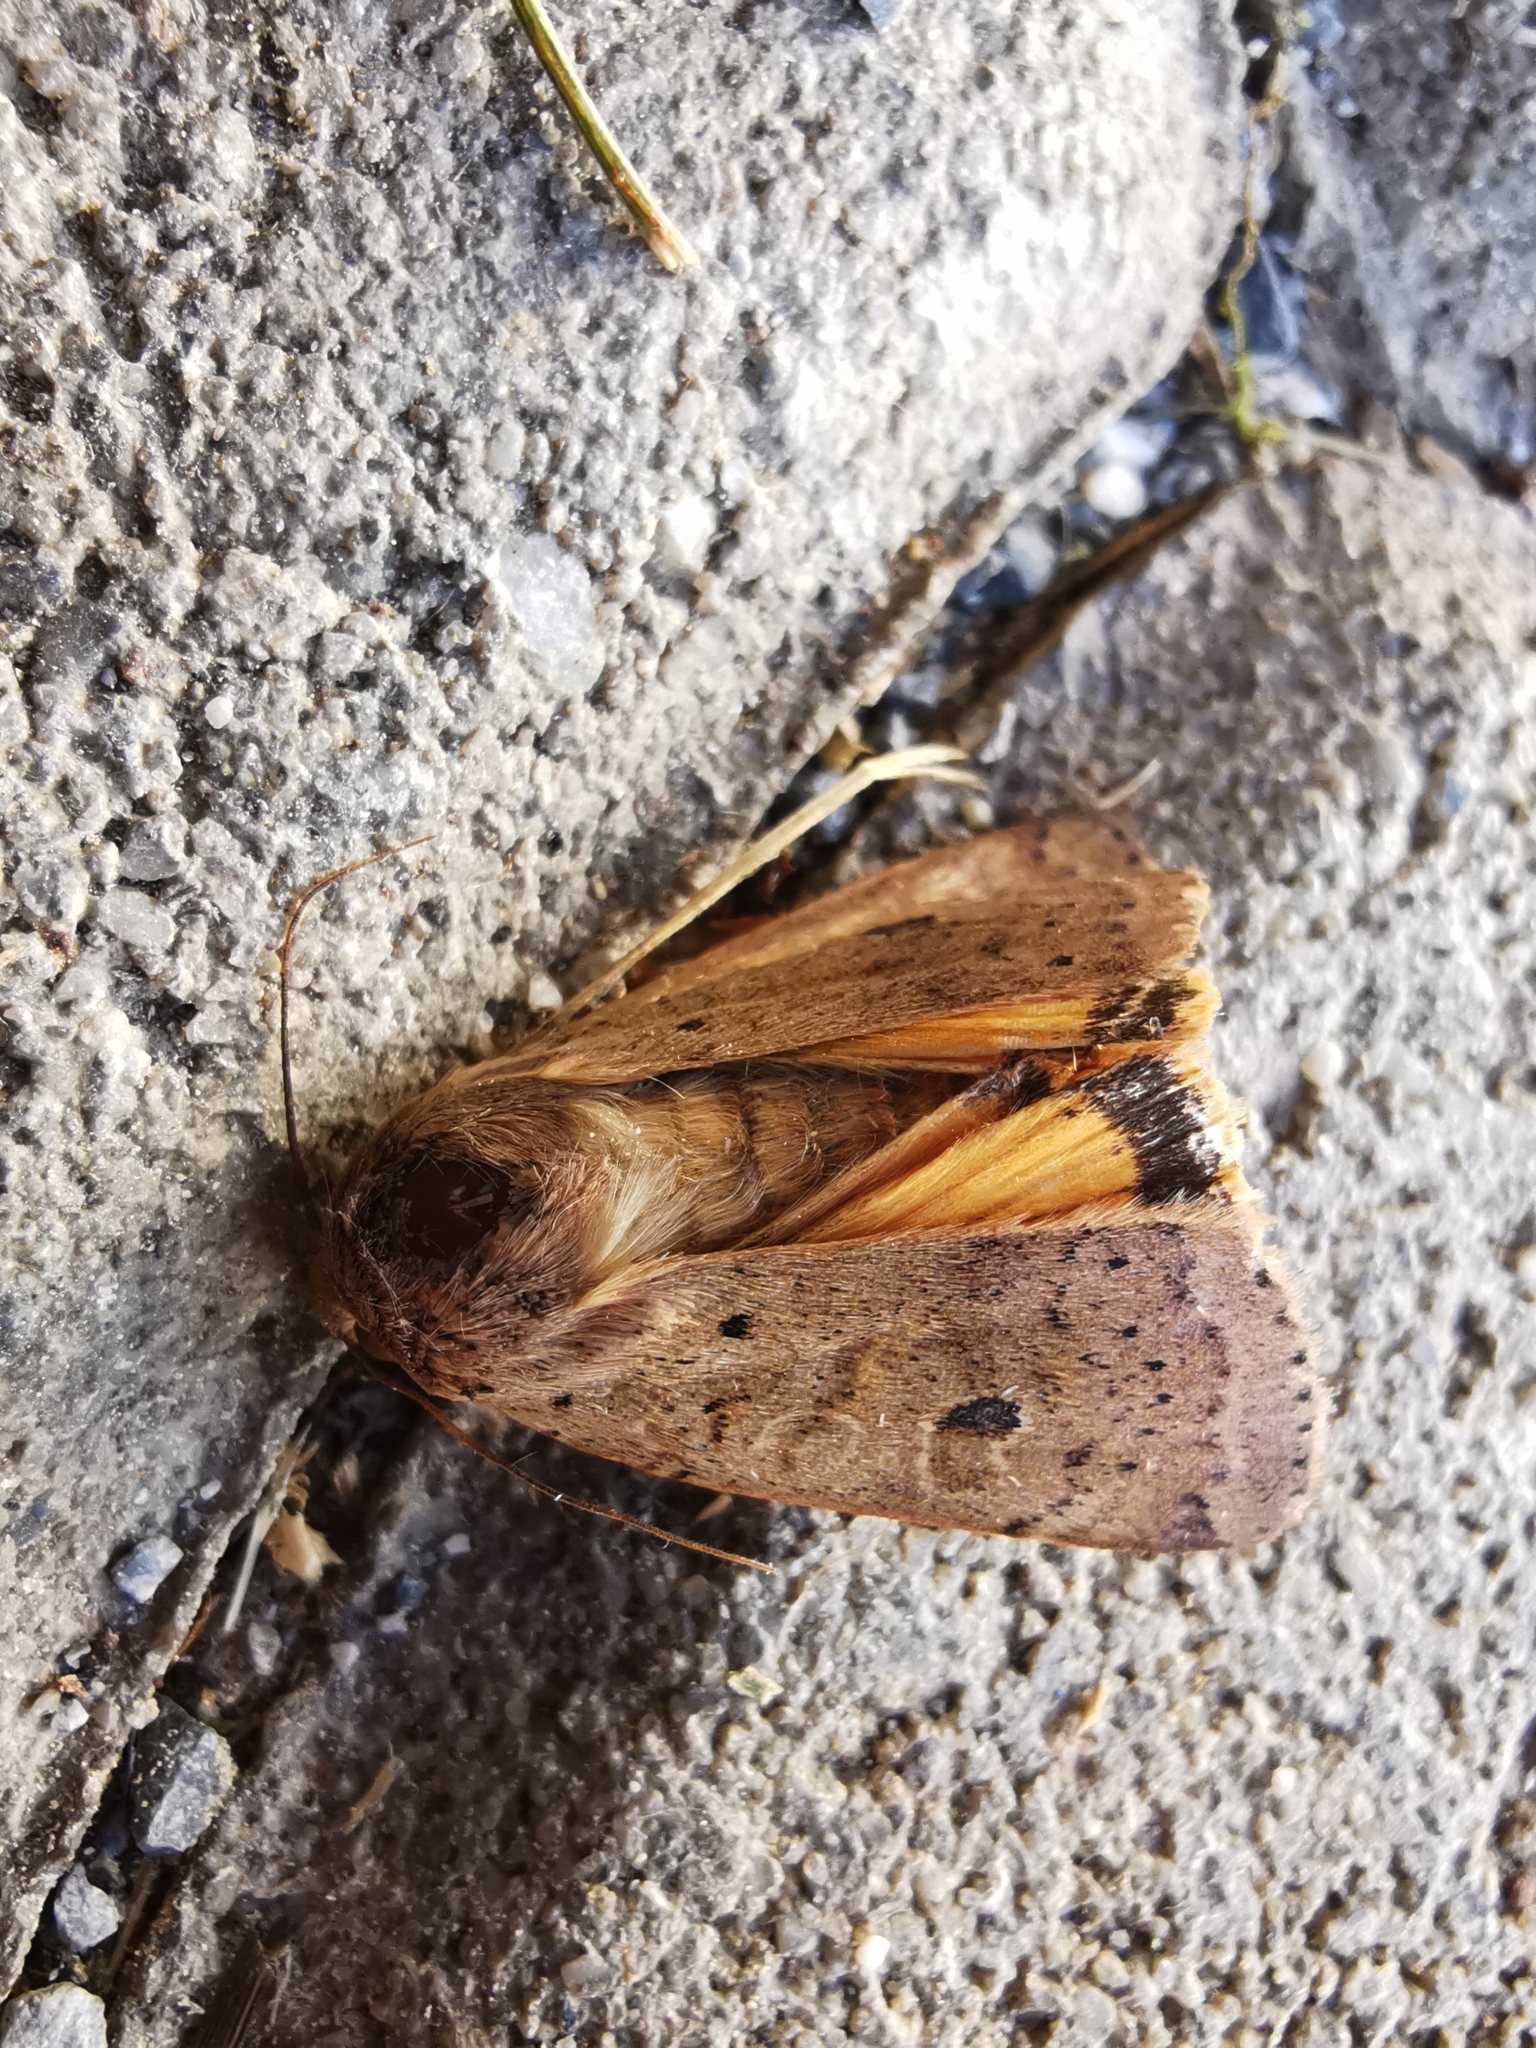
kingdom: Animalia
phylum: Arthropoda
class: Insecta
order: Lepidoptera
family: Noctuidae
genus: Noctua
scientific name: Noctua comes
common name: Lesser yellow underwing
